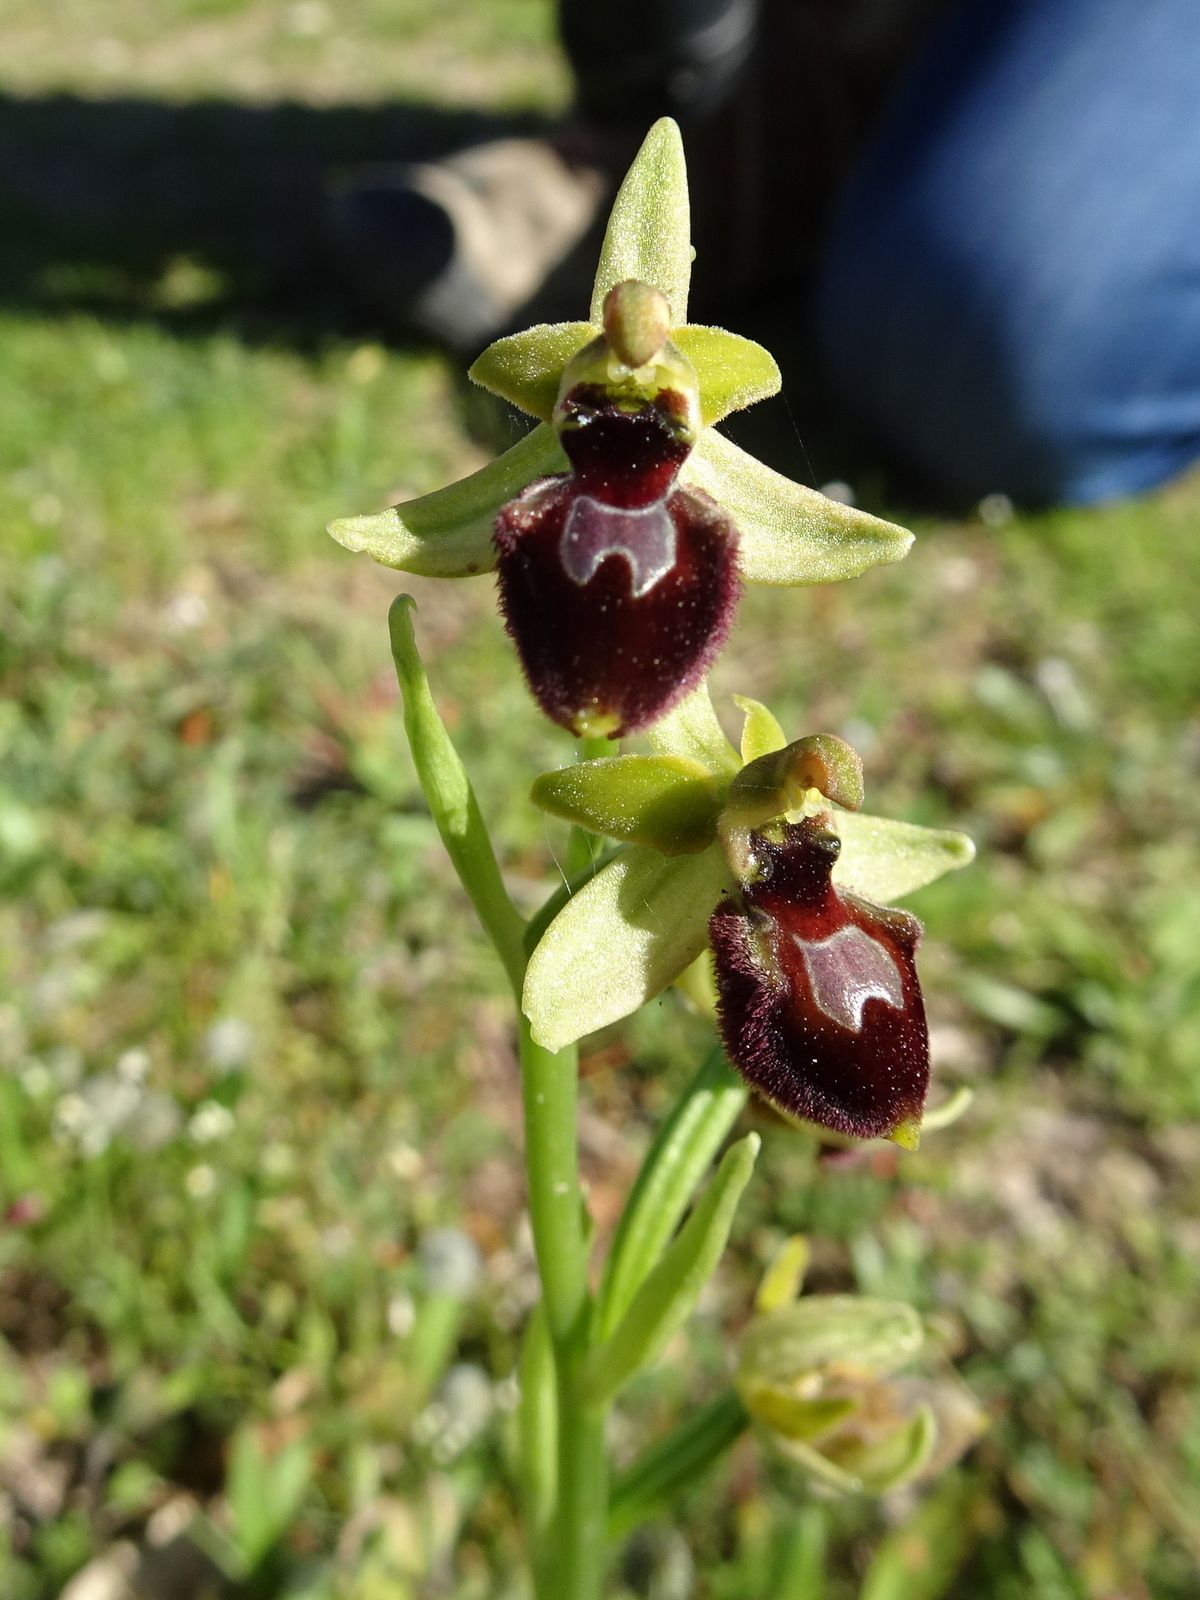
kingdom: Plantae
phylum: Tracheophyta
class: Liliopsida
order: Asparagales
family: Orchidaceae
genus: Ophrys
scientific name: Ophrys sphegodes
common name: Early spider-orchid
